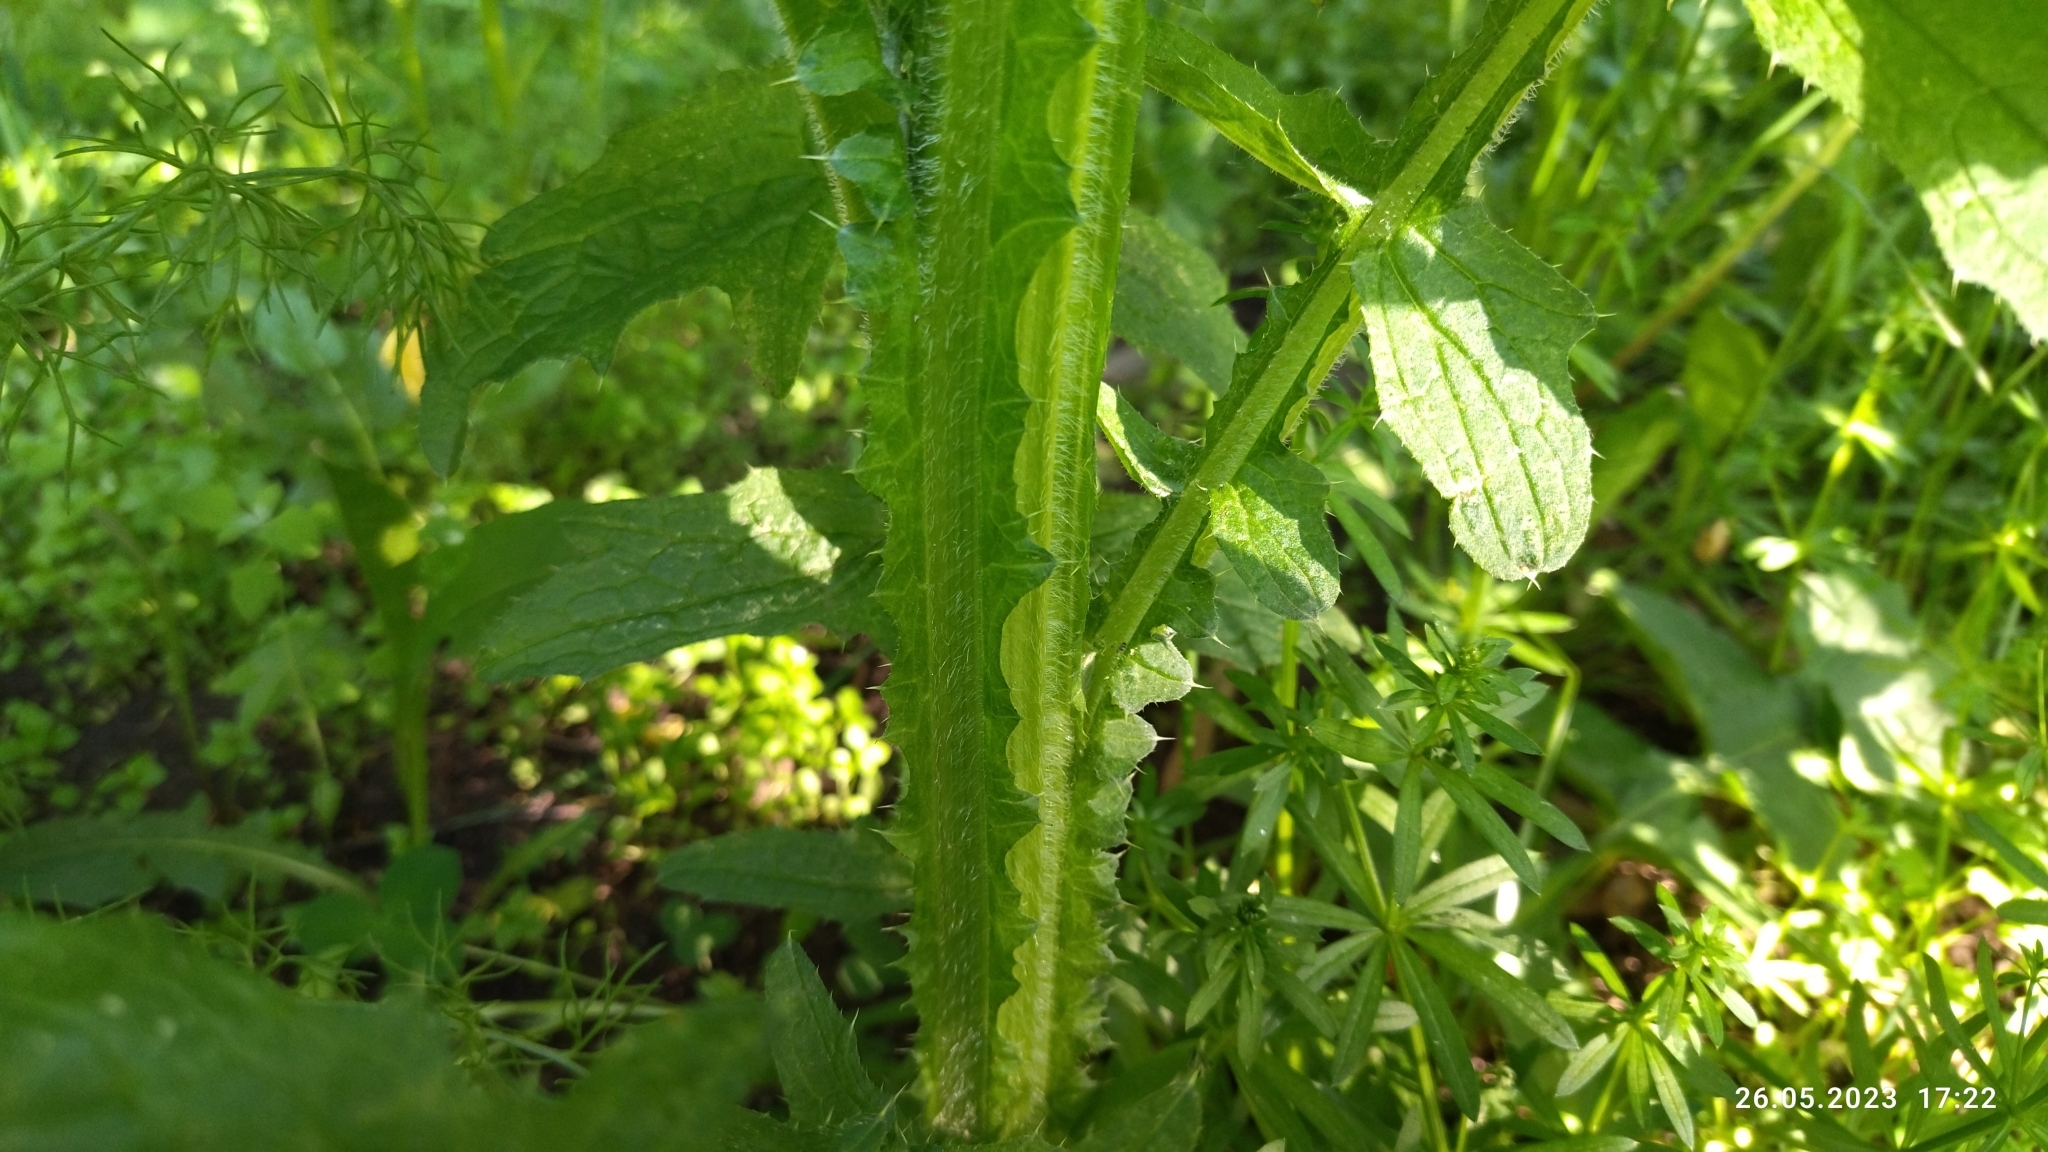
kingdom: Plantae
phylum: Tracheophyta
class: Magnoliopsida
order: Asterales
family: Asteraceae
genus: Carduus
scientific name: Carduus crispus
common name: Welted thistle
